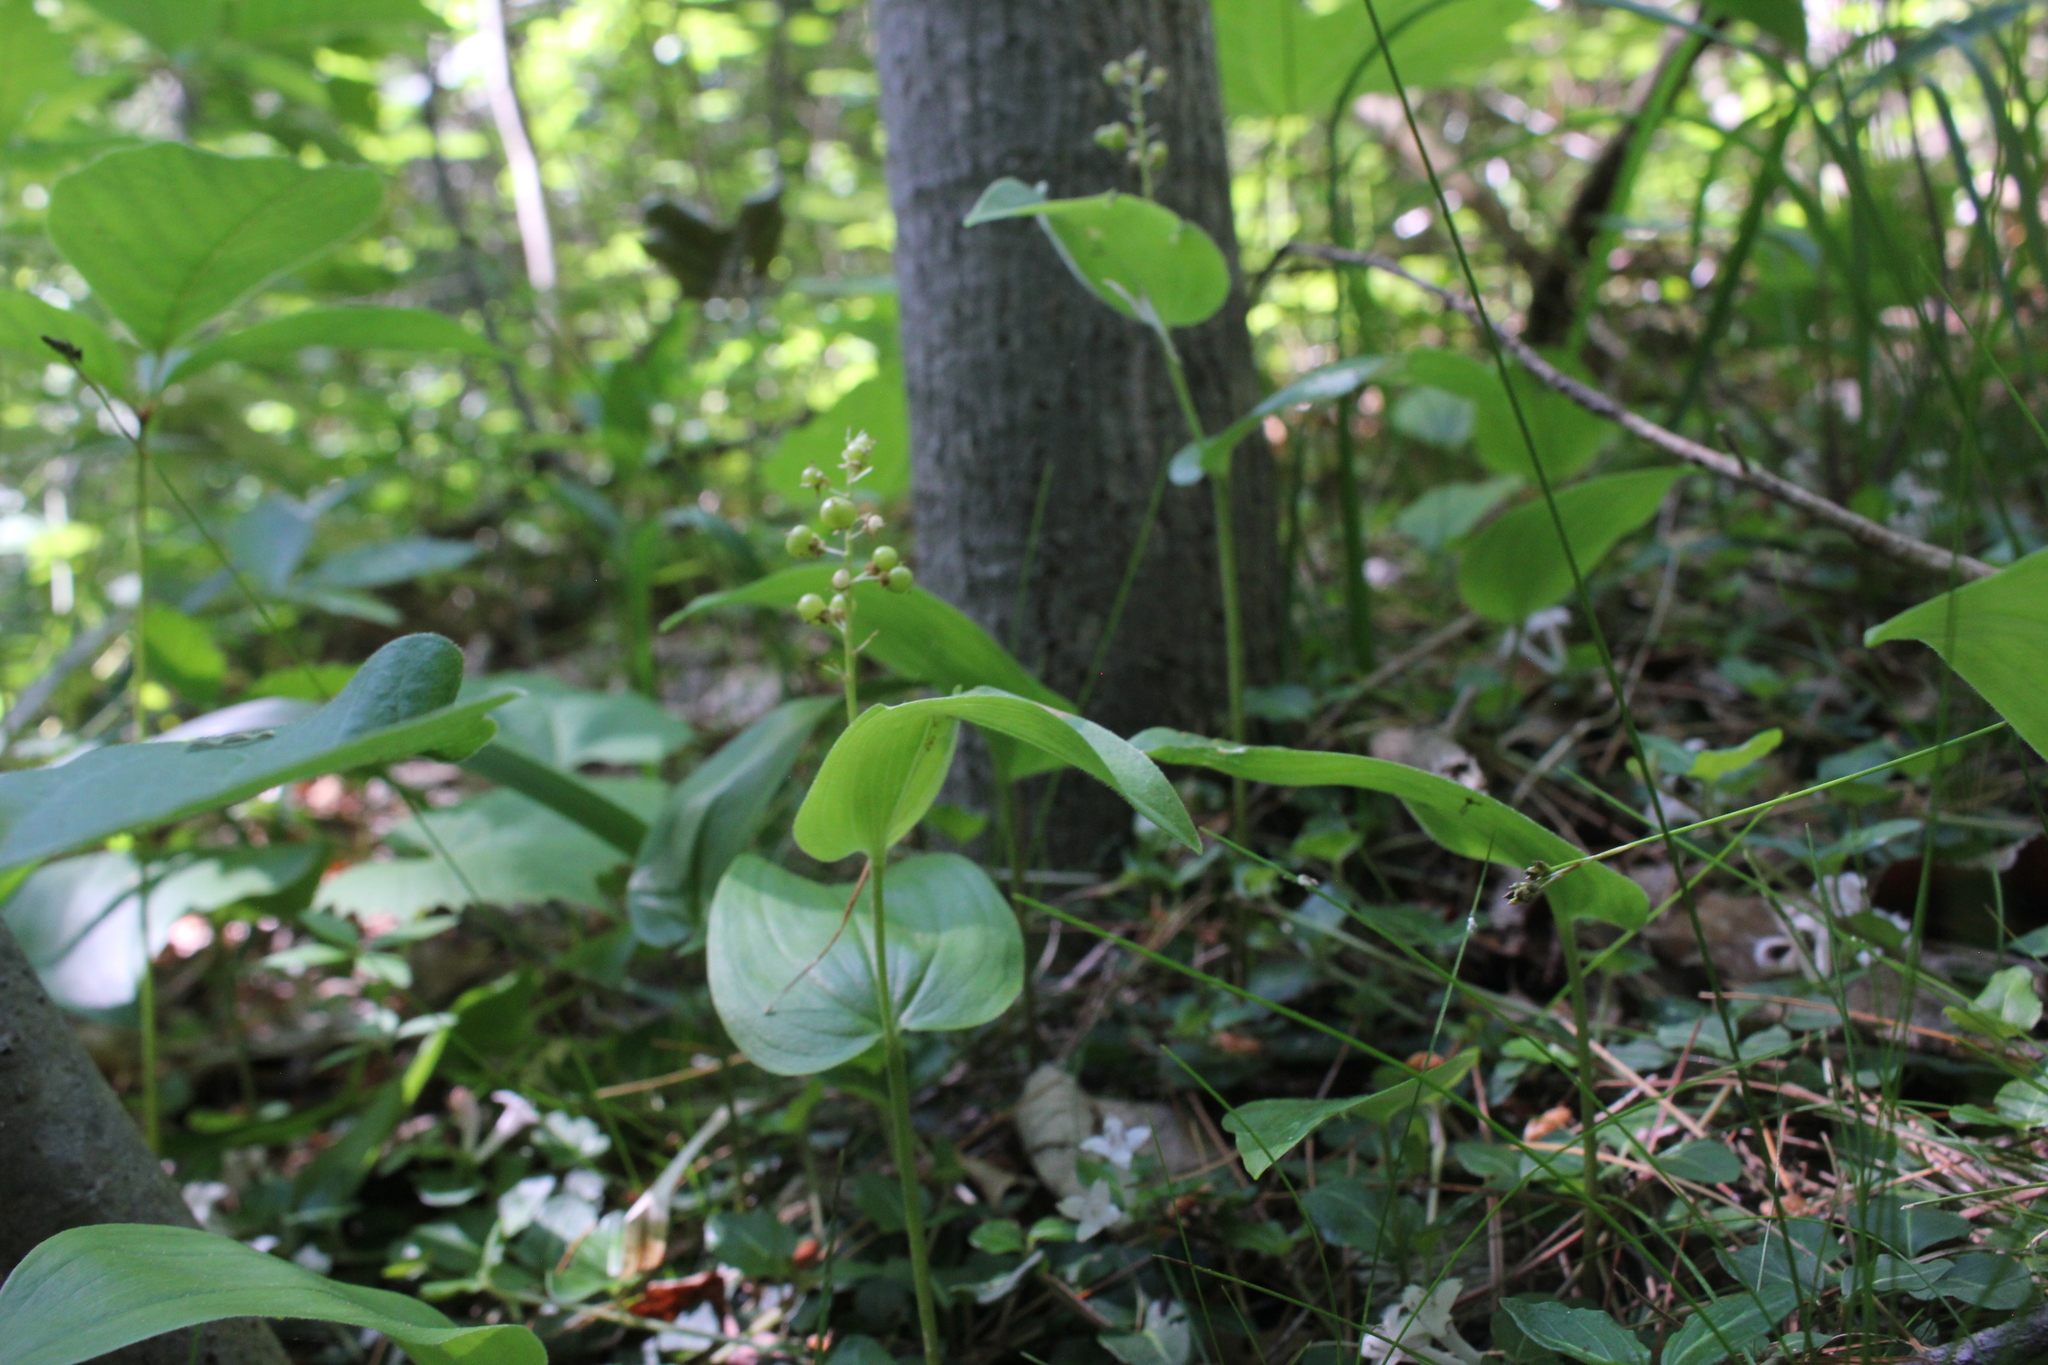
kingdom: Plantae
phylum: Tracheophyta
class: Liliopsida
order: Asparagales
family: Asparagaceae
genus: Maianthemum
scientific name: Maianthemum canadense
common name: False lily-of-the-valley
